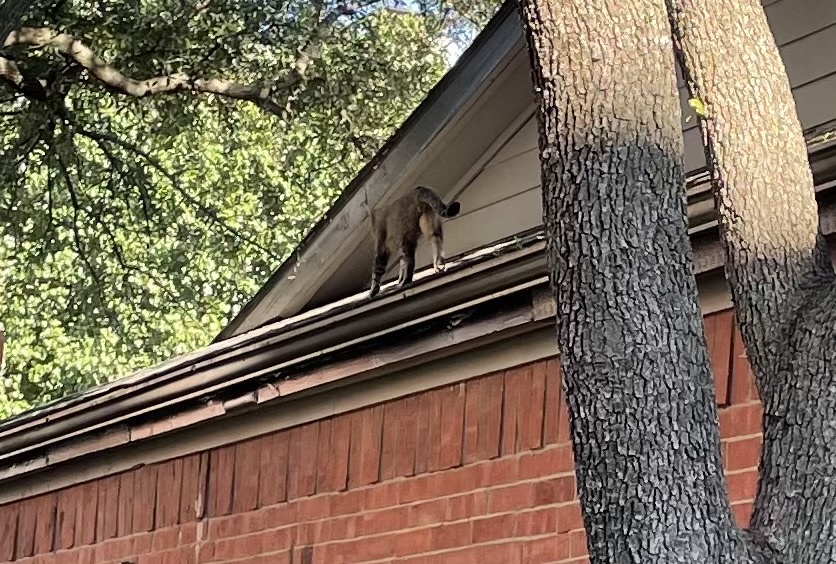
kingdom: Animalia
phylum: Chordata
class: Mammalia
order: Carnivora
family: Felidae
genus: Felis
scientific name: Felis catus
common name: Domestic cat
